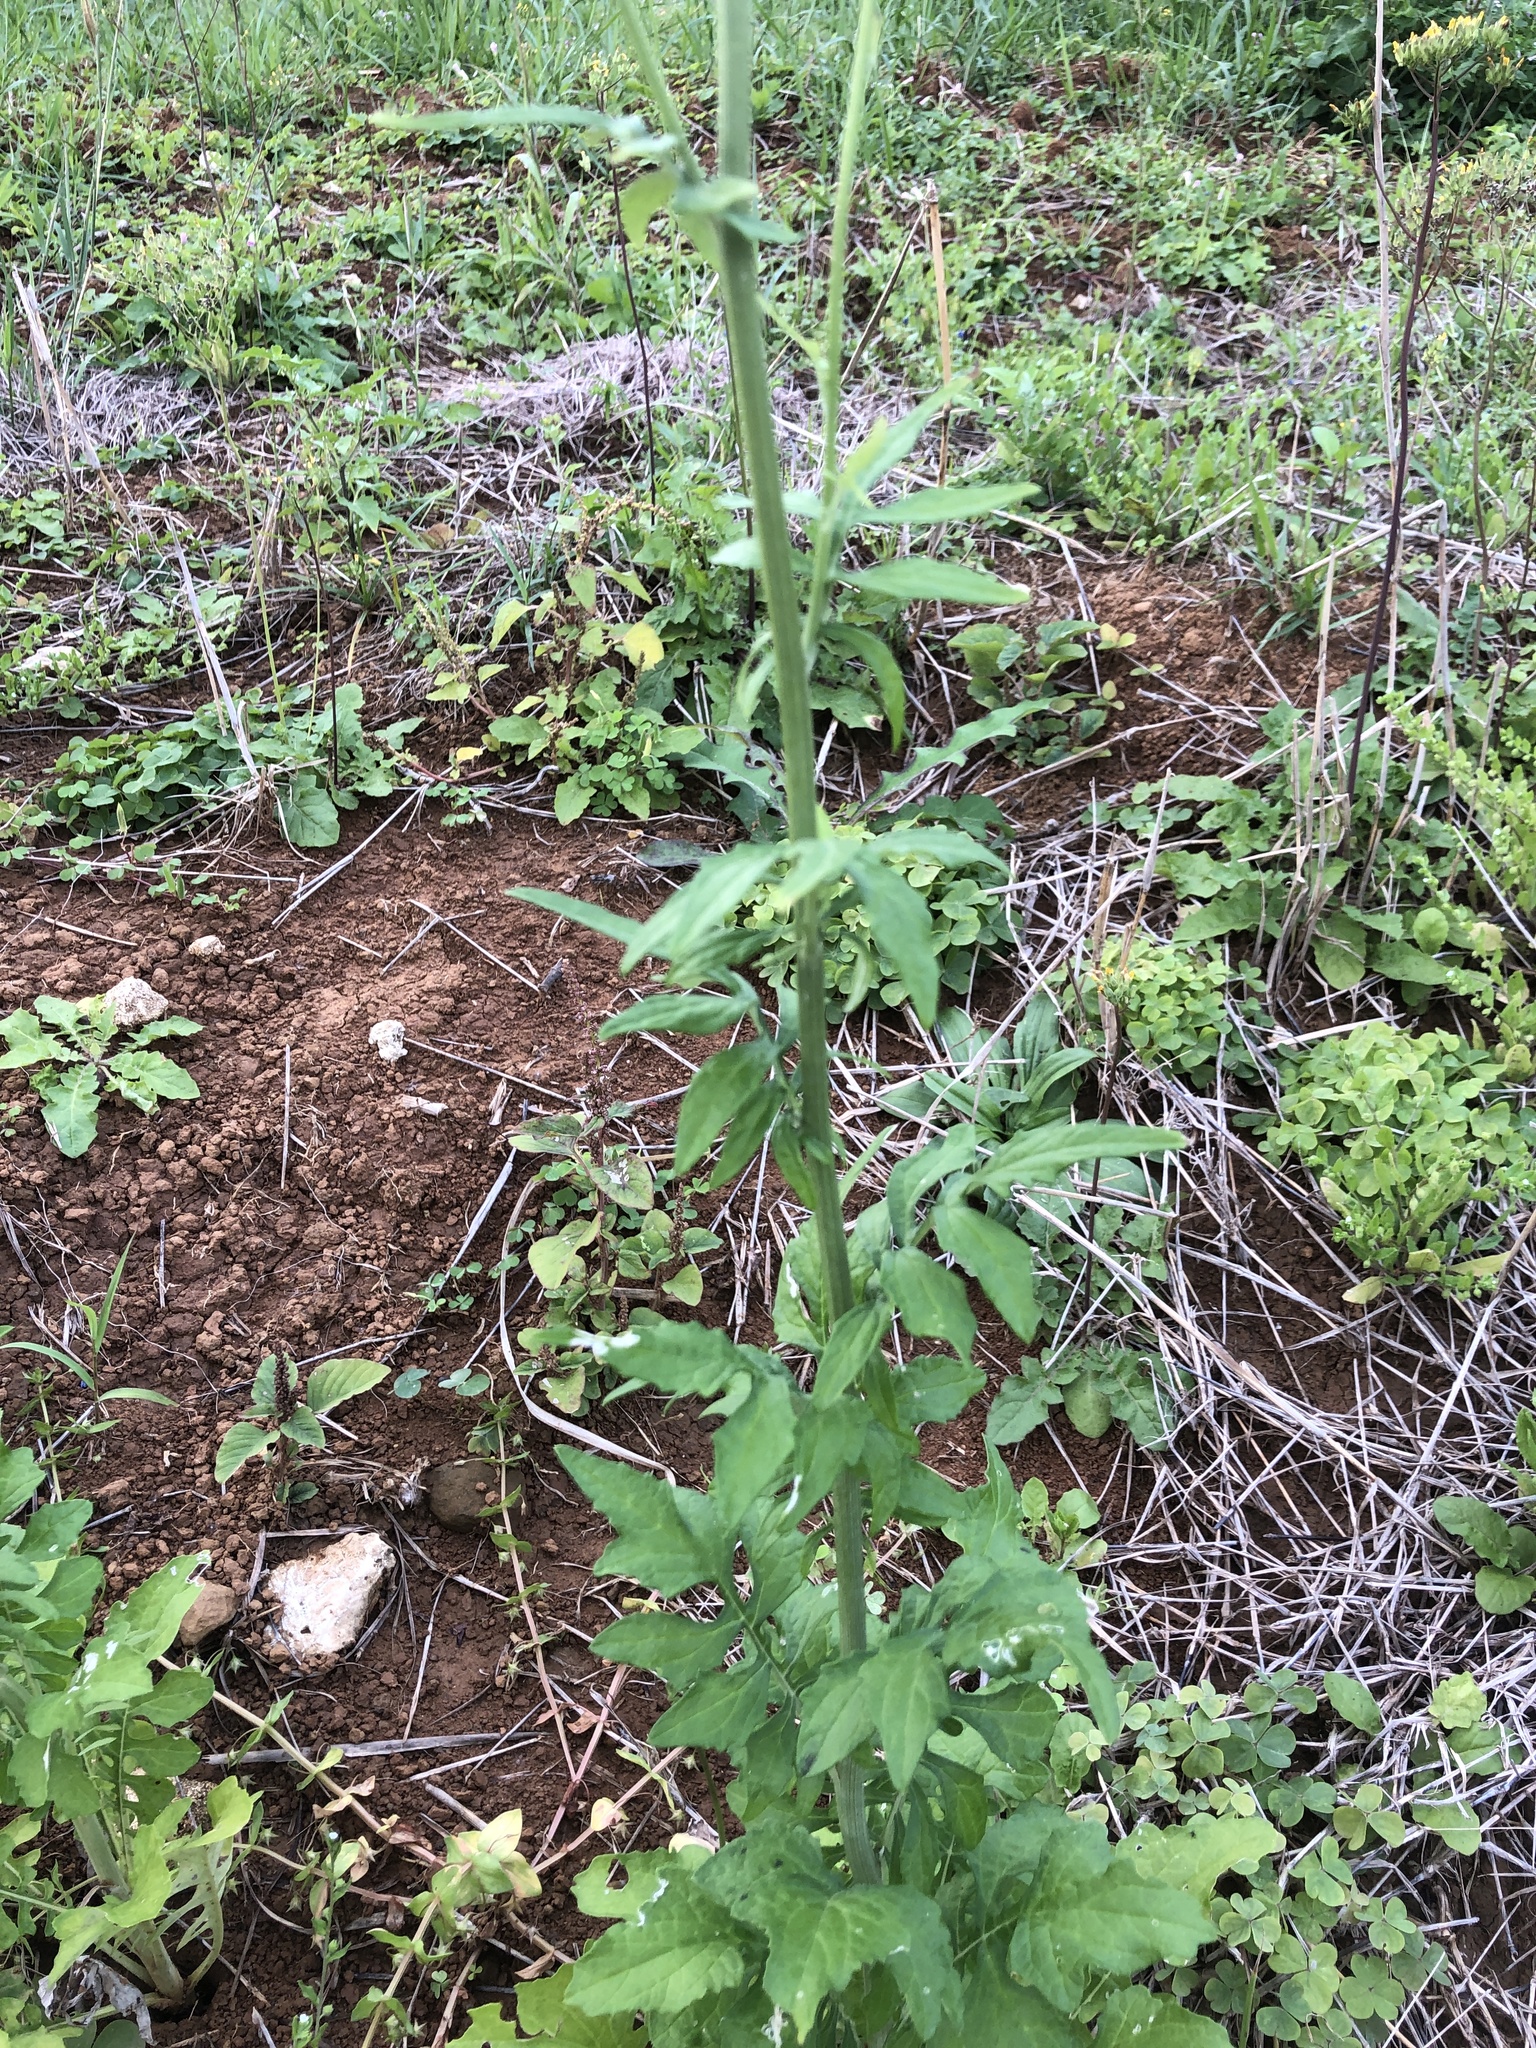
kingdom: Plantae
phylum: Tracheophyta
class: Magnoliopsida
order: Asterales
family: Asteraceae
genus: Saussurea
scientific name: Saussurea lyrata
